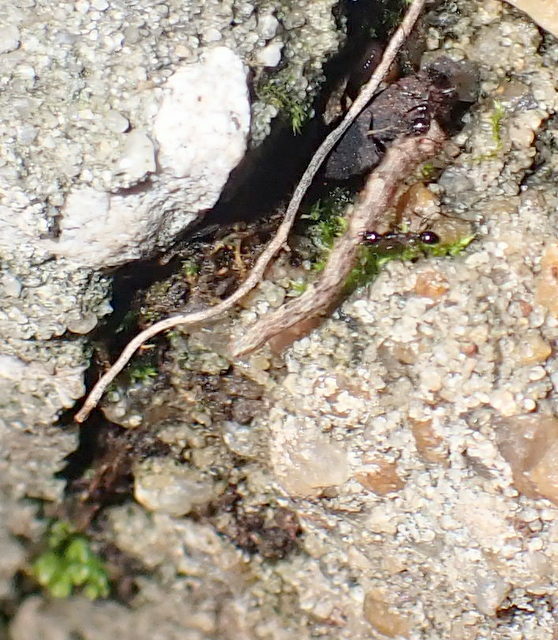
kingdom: Animalia
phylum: Arthropoda
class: Insecta
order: Hymenoptera
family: Formicidae
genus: Pheidole
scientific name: Pheidole obscurithorax
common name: Obscure big-headed ant
